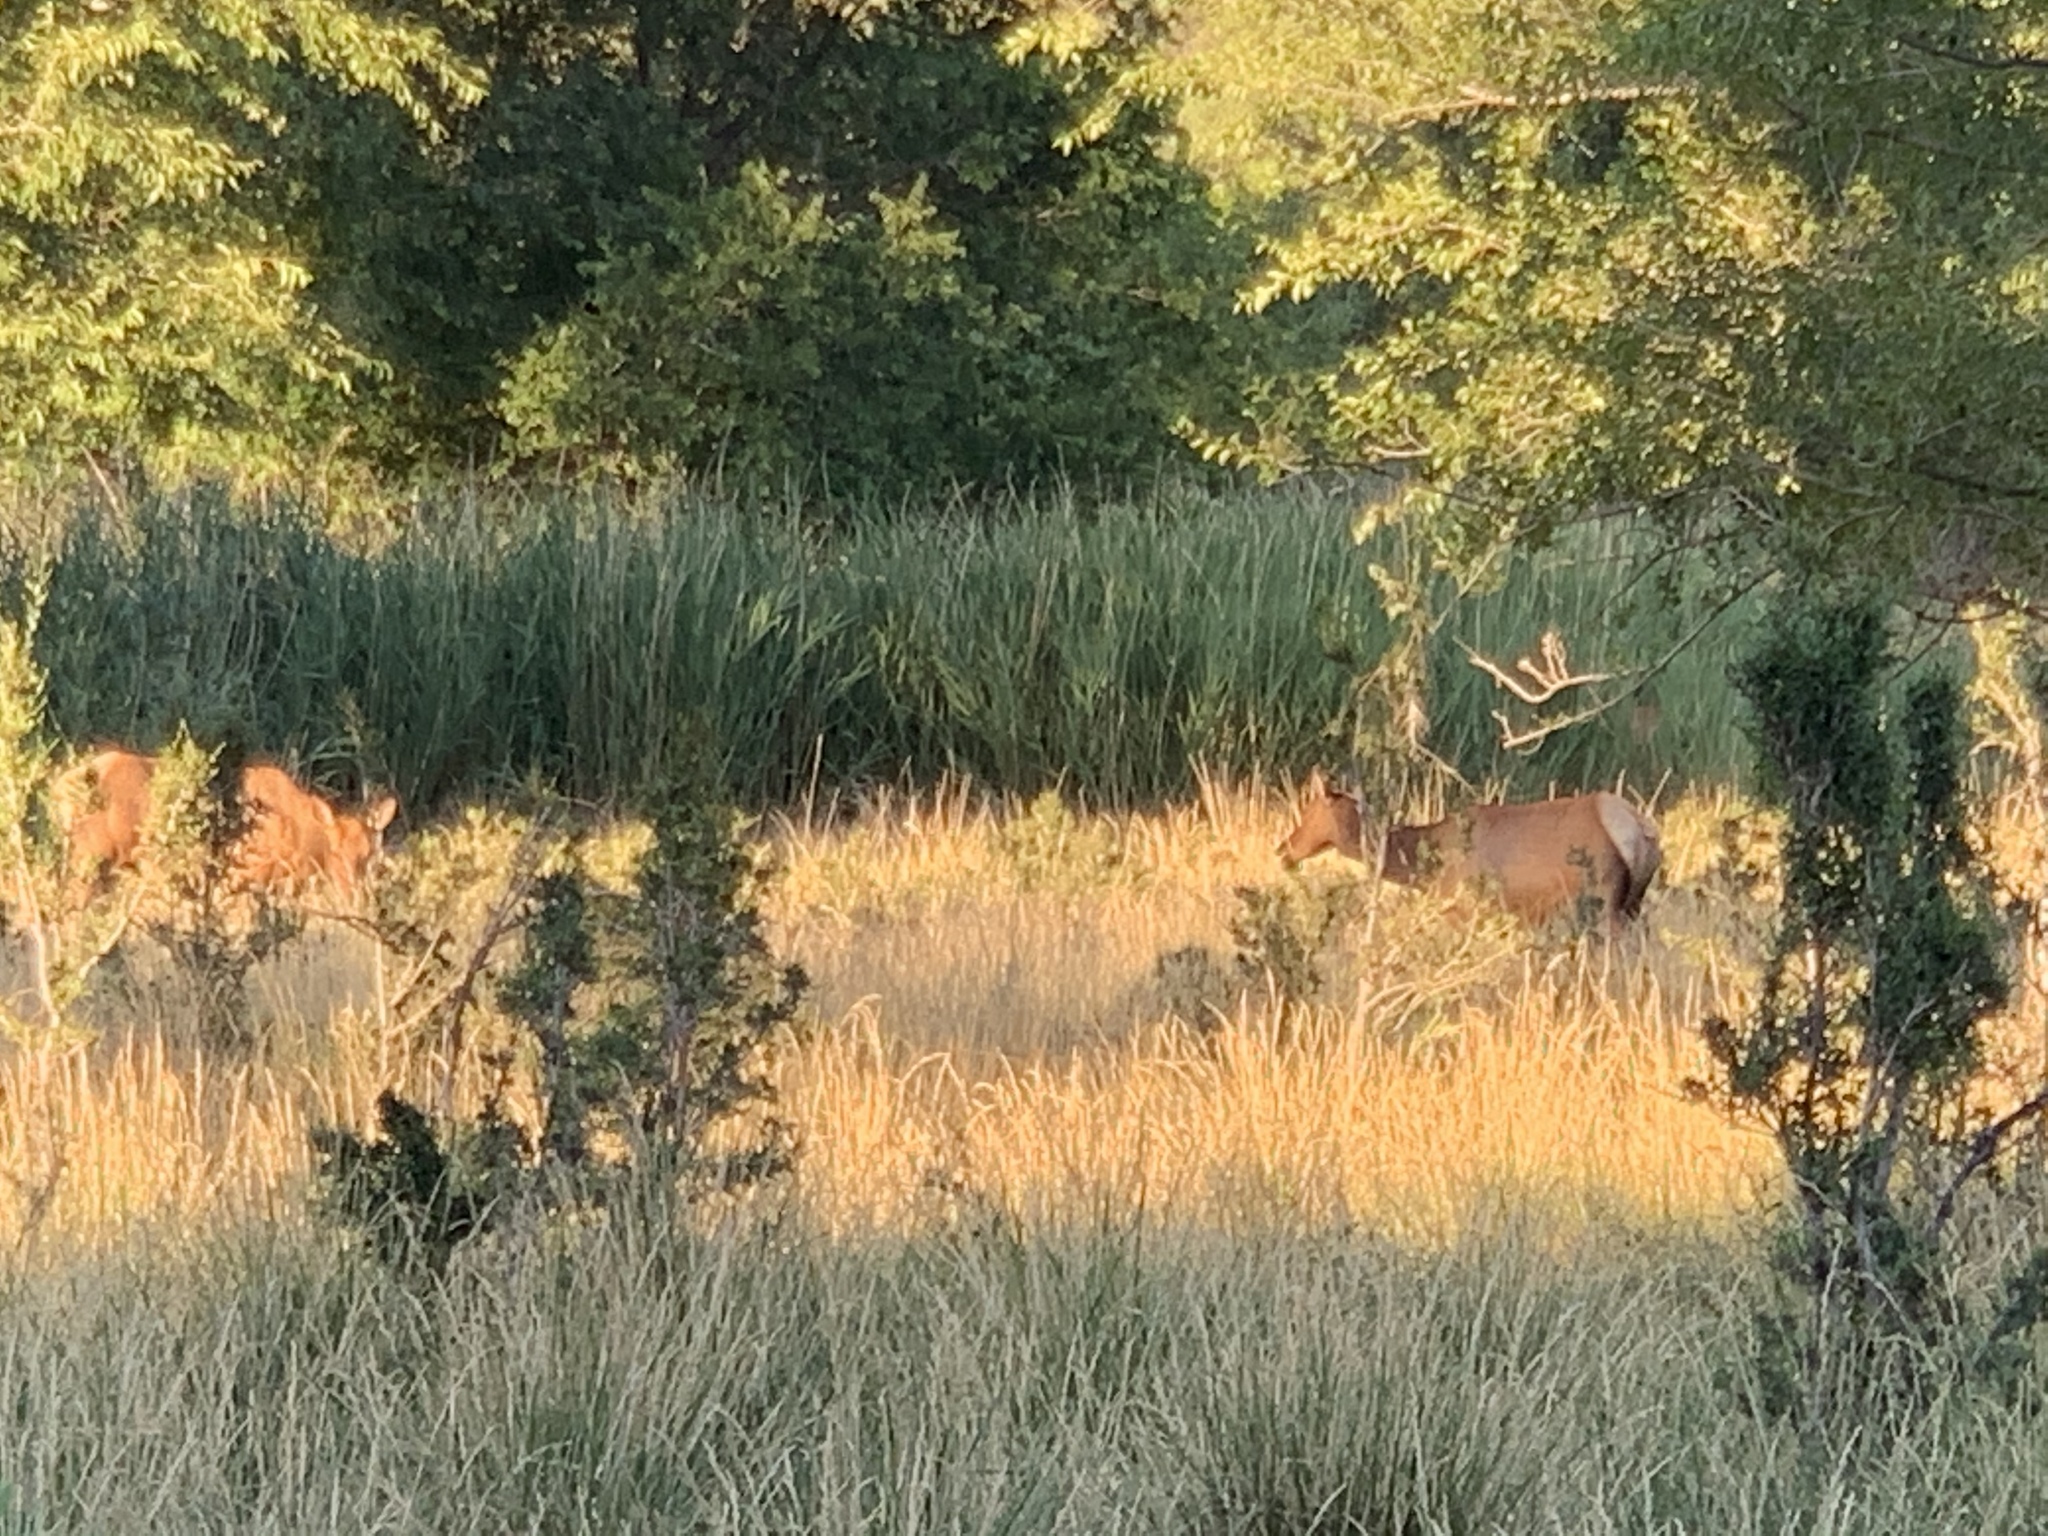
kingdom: Animalia
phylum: Chordata
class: Mammalia
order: Artiodactyla
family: Cervidae
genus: Cervus
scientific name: Cervus elaphus
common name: Red deer
